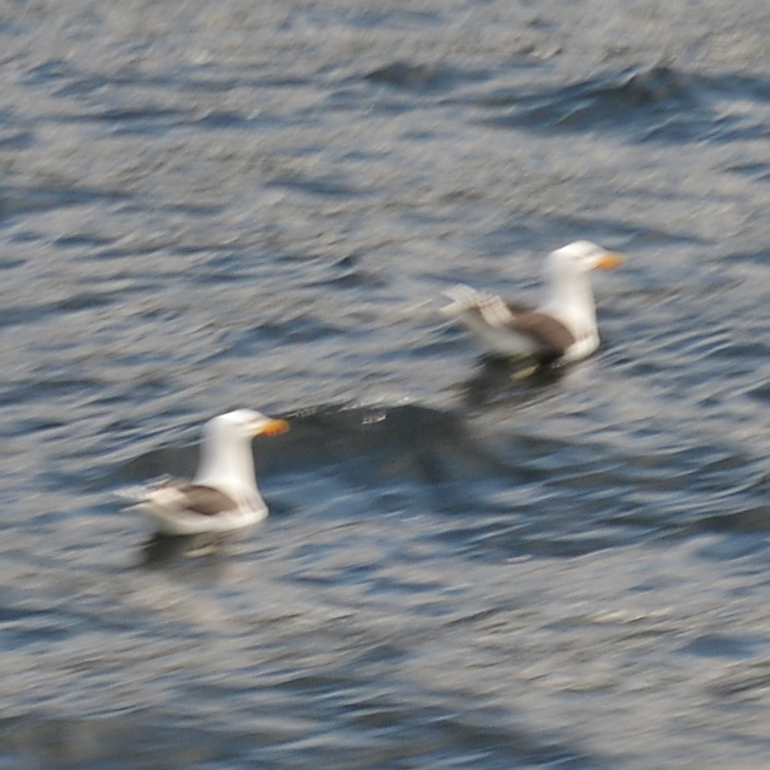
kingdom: Animalia
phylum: Chordata
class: Aves
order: Charadriiformes
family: Laridae
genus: Larus
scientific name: Larus marinus
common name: Great black-backed gull
